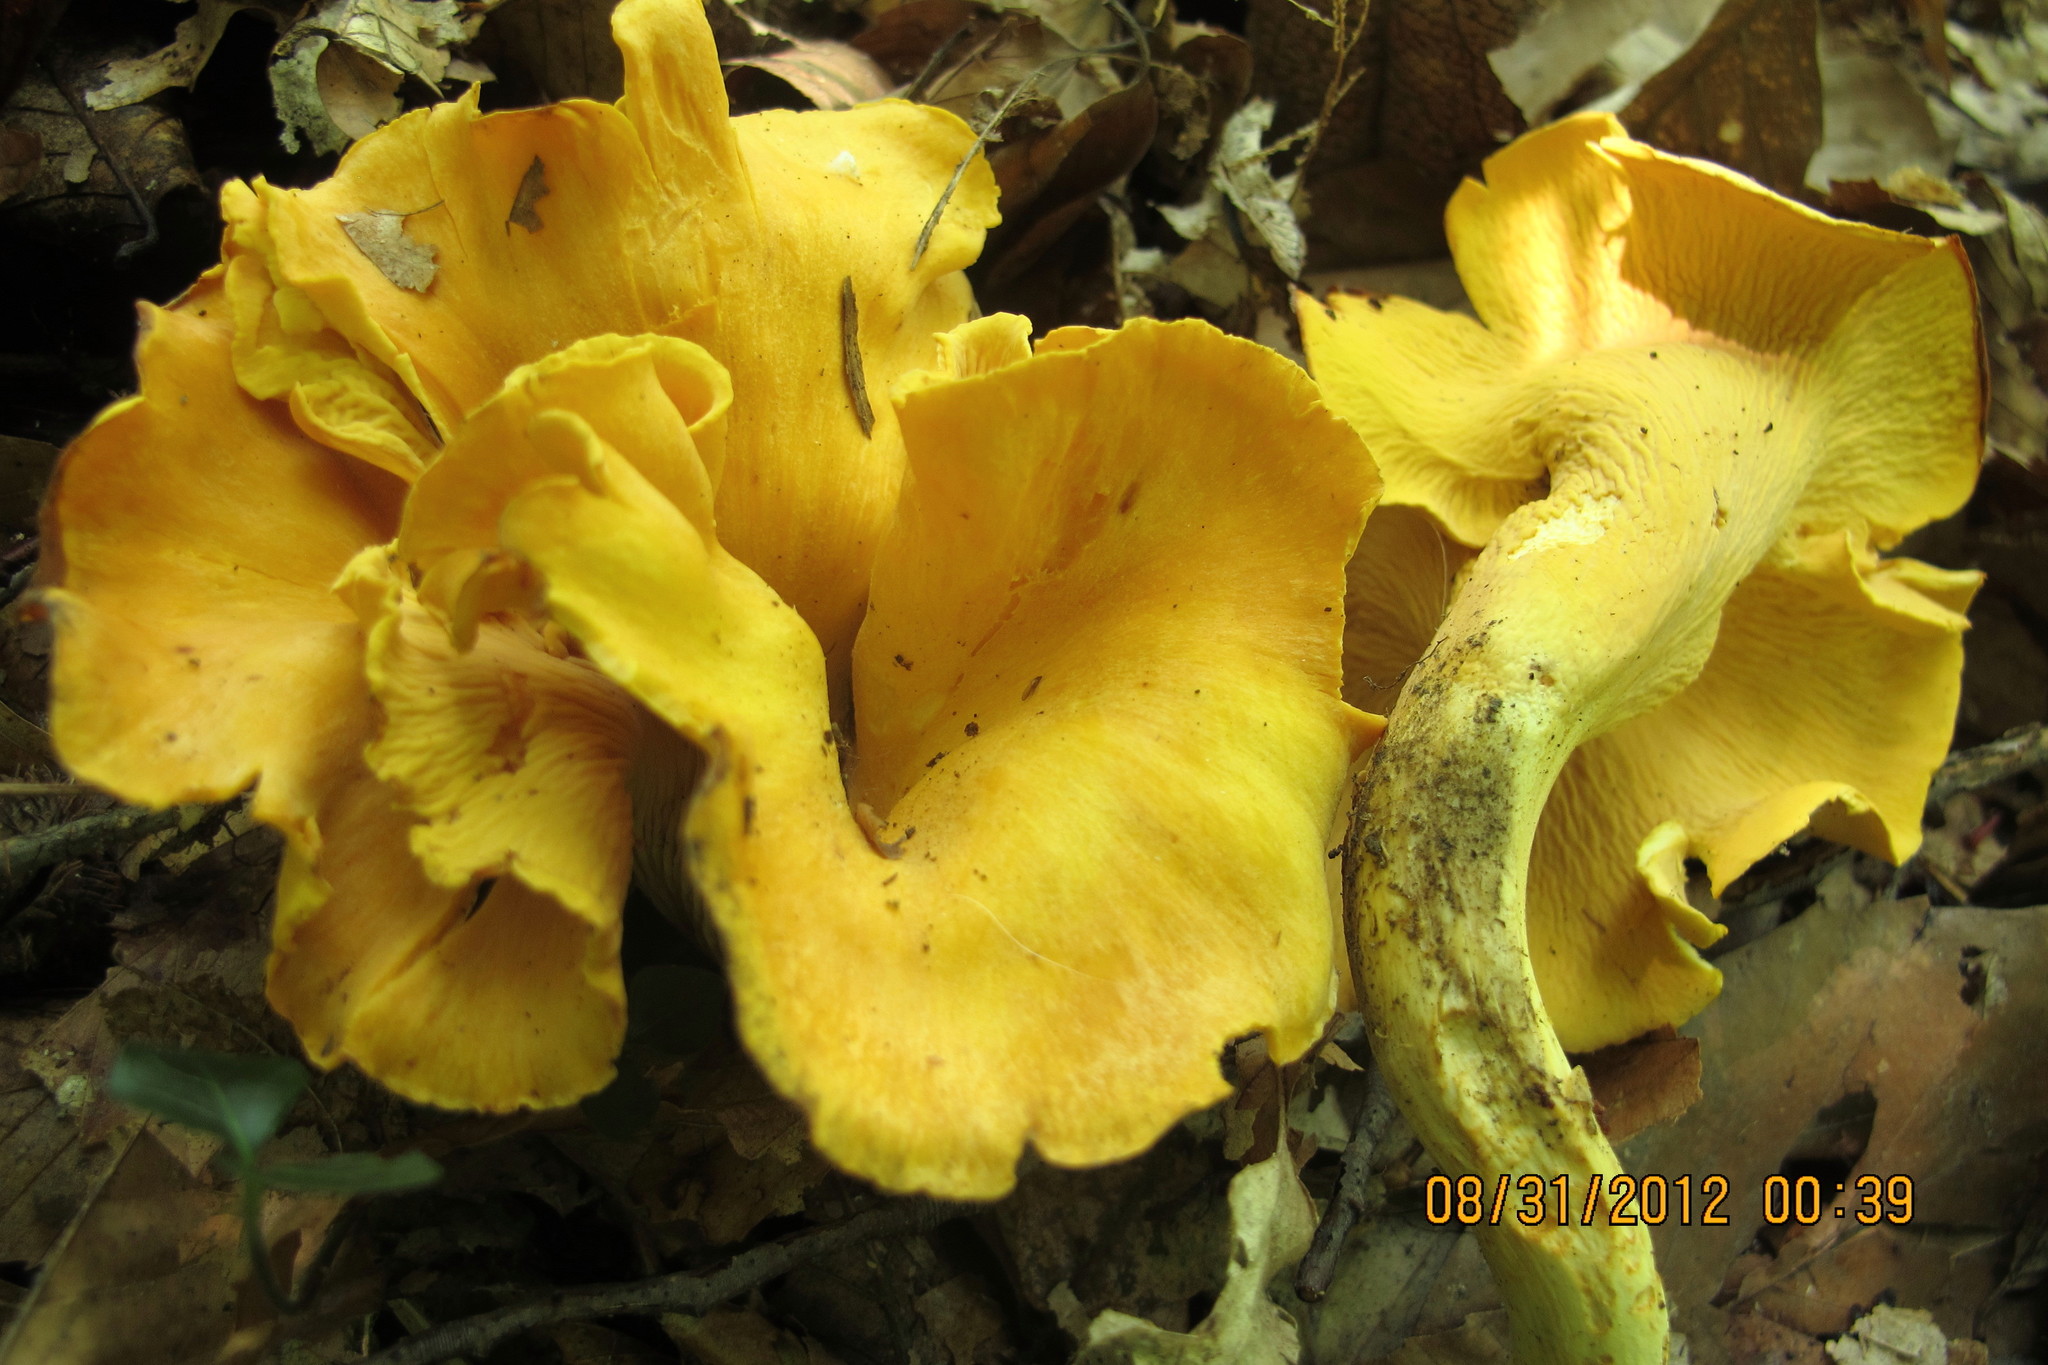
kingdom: Fungi
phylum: Basidiomycota
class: Agaricomycetes
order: Cantharellales
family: Hydnaceae
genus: Cantharellus
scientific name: Cantharellus lateritius
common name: Smooth chanterelle
